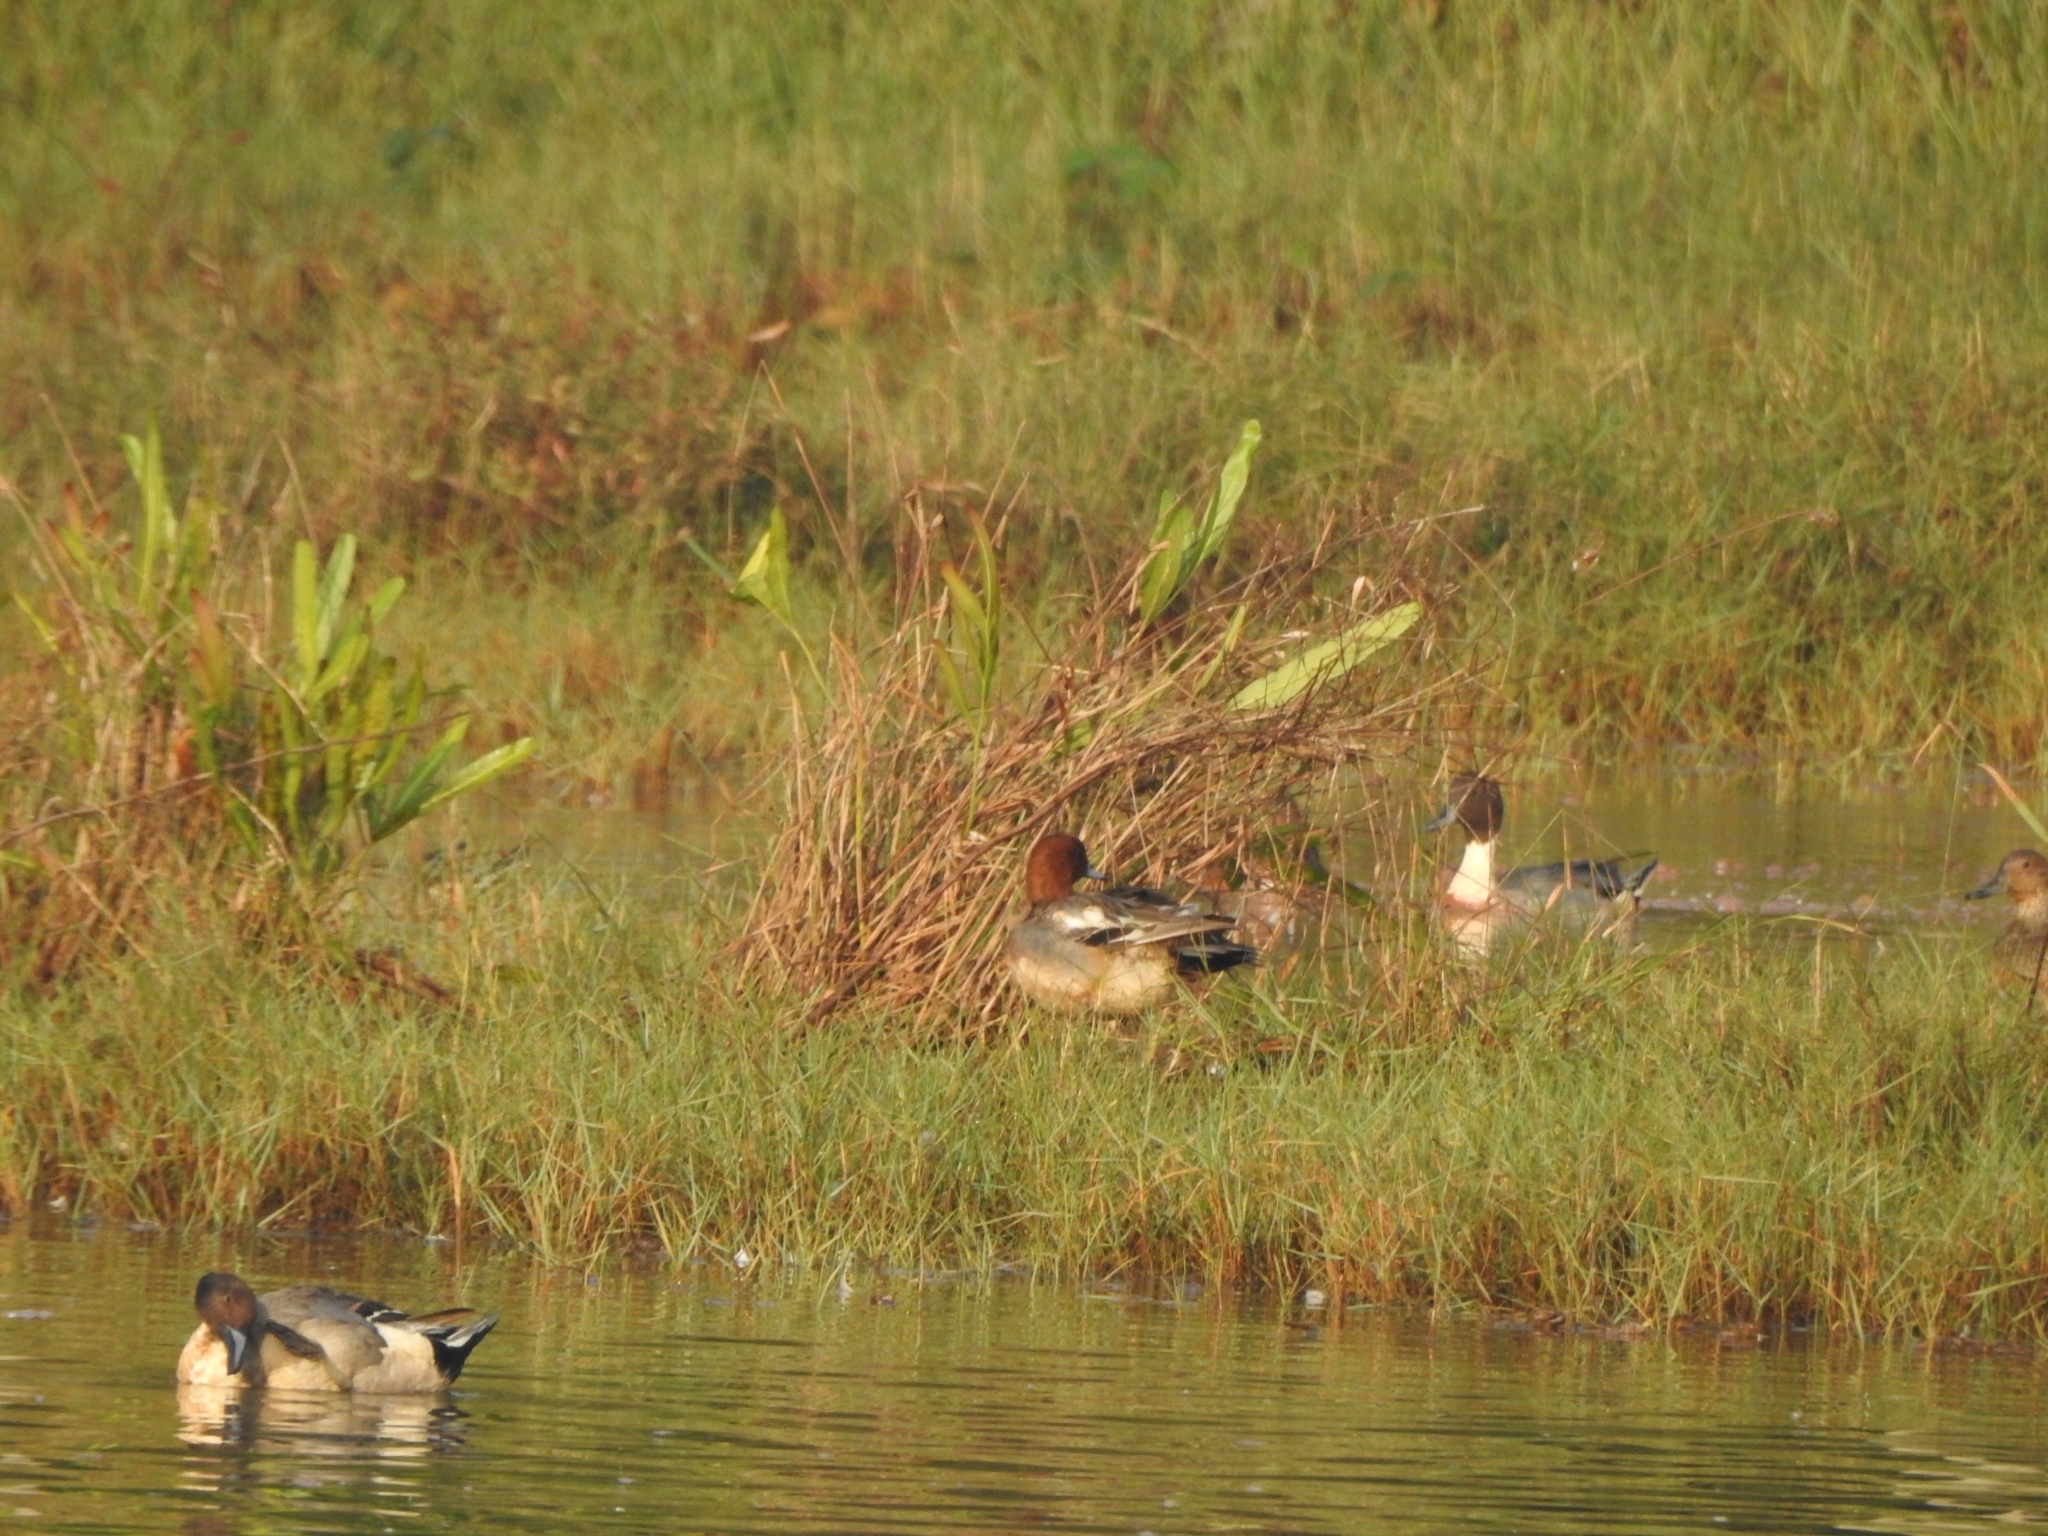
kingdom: Animalia
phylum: Chordata
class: Aves
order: Anseriformes
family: Anatidae
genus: Anas
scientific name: Anas acuta
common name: Northern pintail
